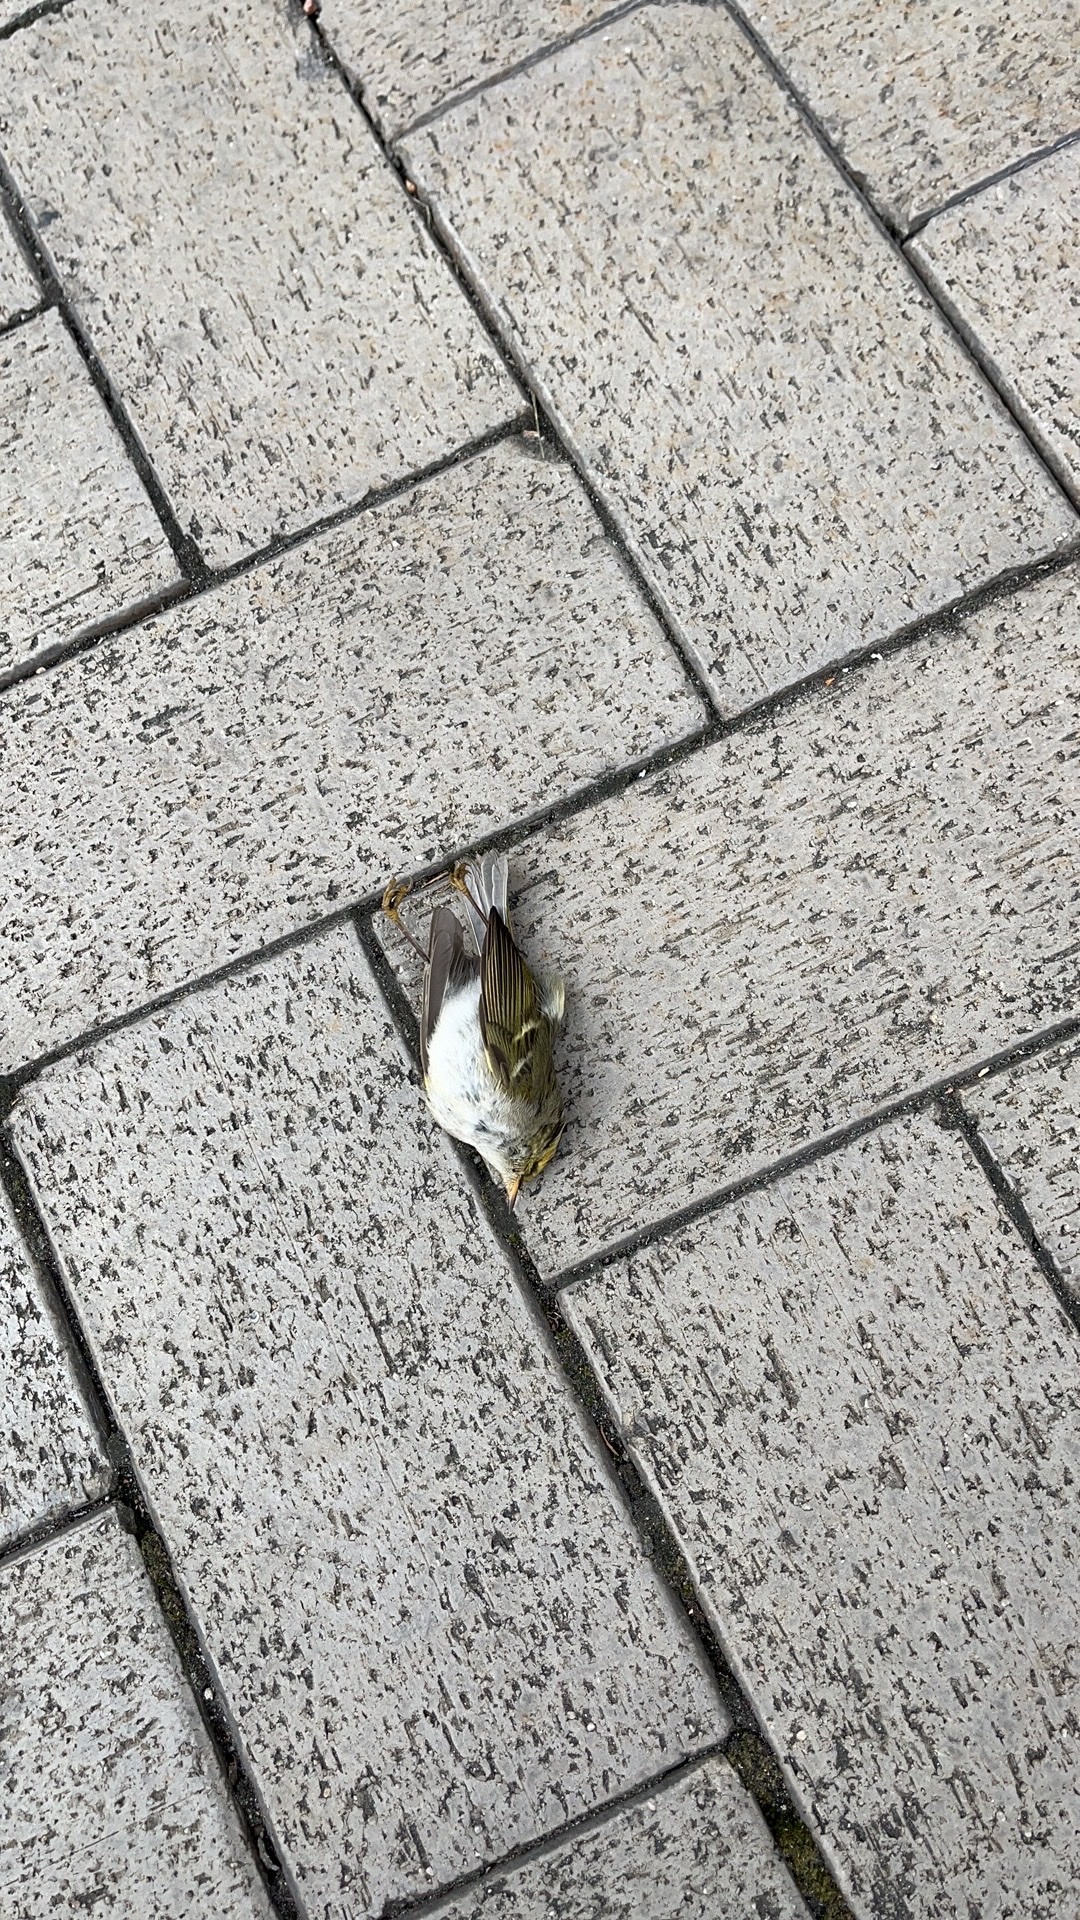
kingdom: Animalia
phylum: Chordata
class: Aves
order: Passeriformes
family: Phylloscopidae
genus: Phylloscopus
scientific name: Phylloscopus proregulus
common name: Pallas's leaf warbler
